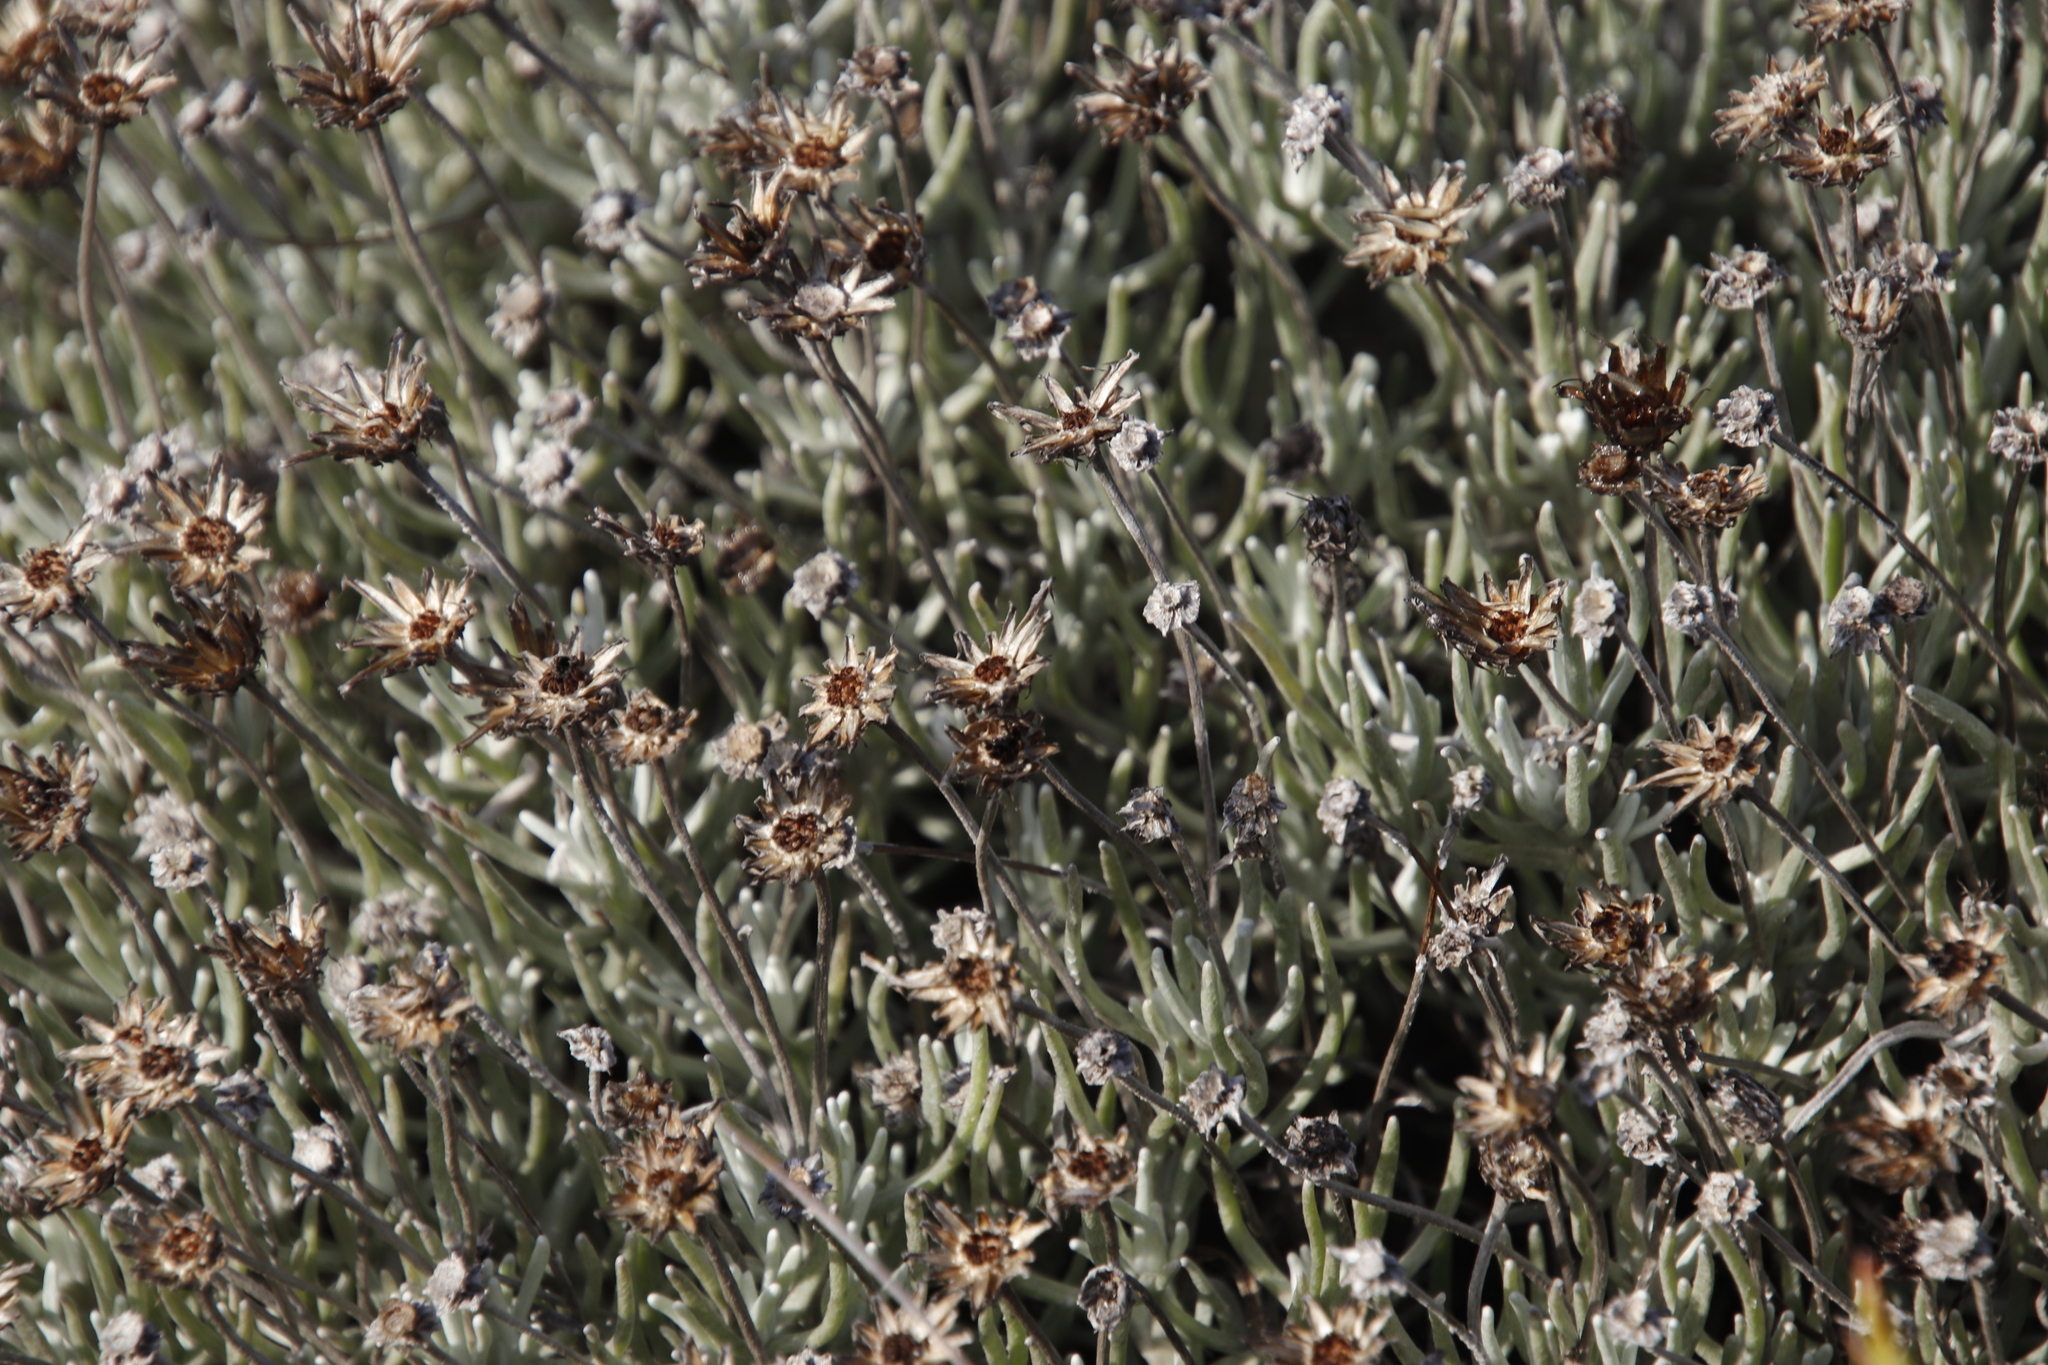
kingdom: Plantae
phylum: Tracheophyta
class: Magnoliopsida
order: Asterales
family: Asteraceae
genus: Syncarpha
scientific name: Syncarpha gnaphaloides
